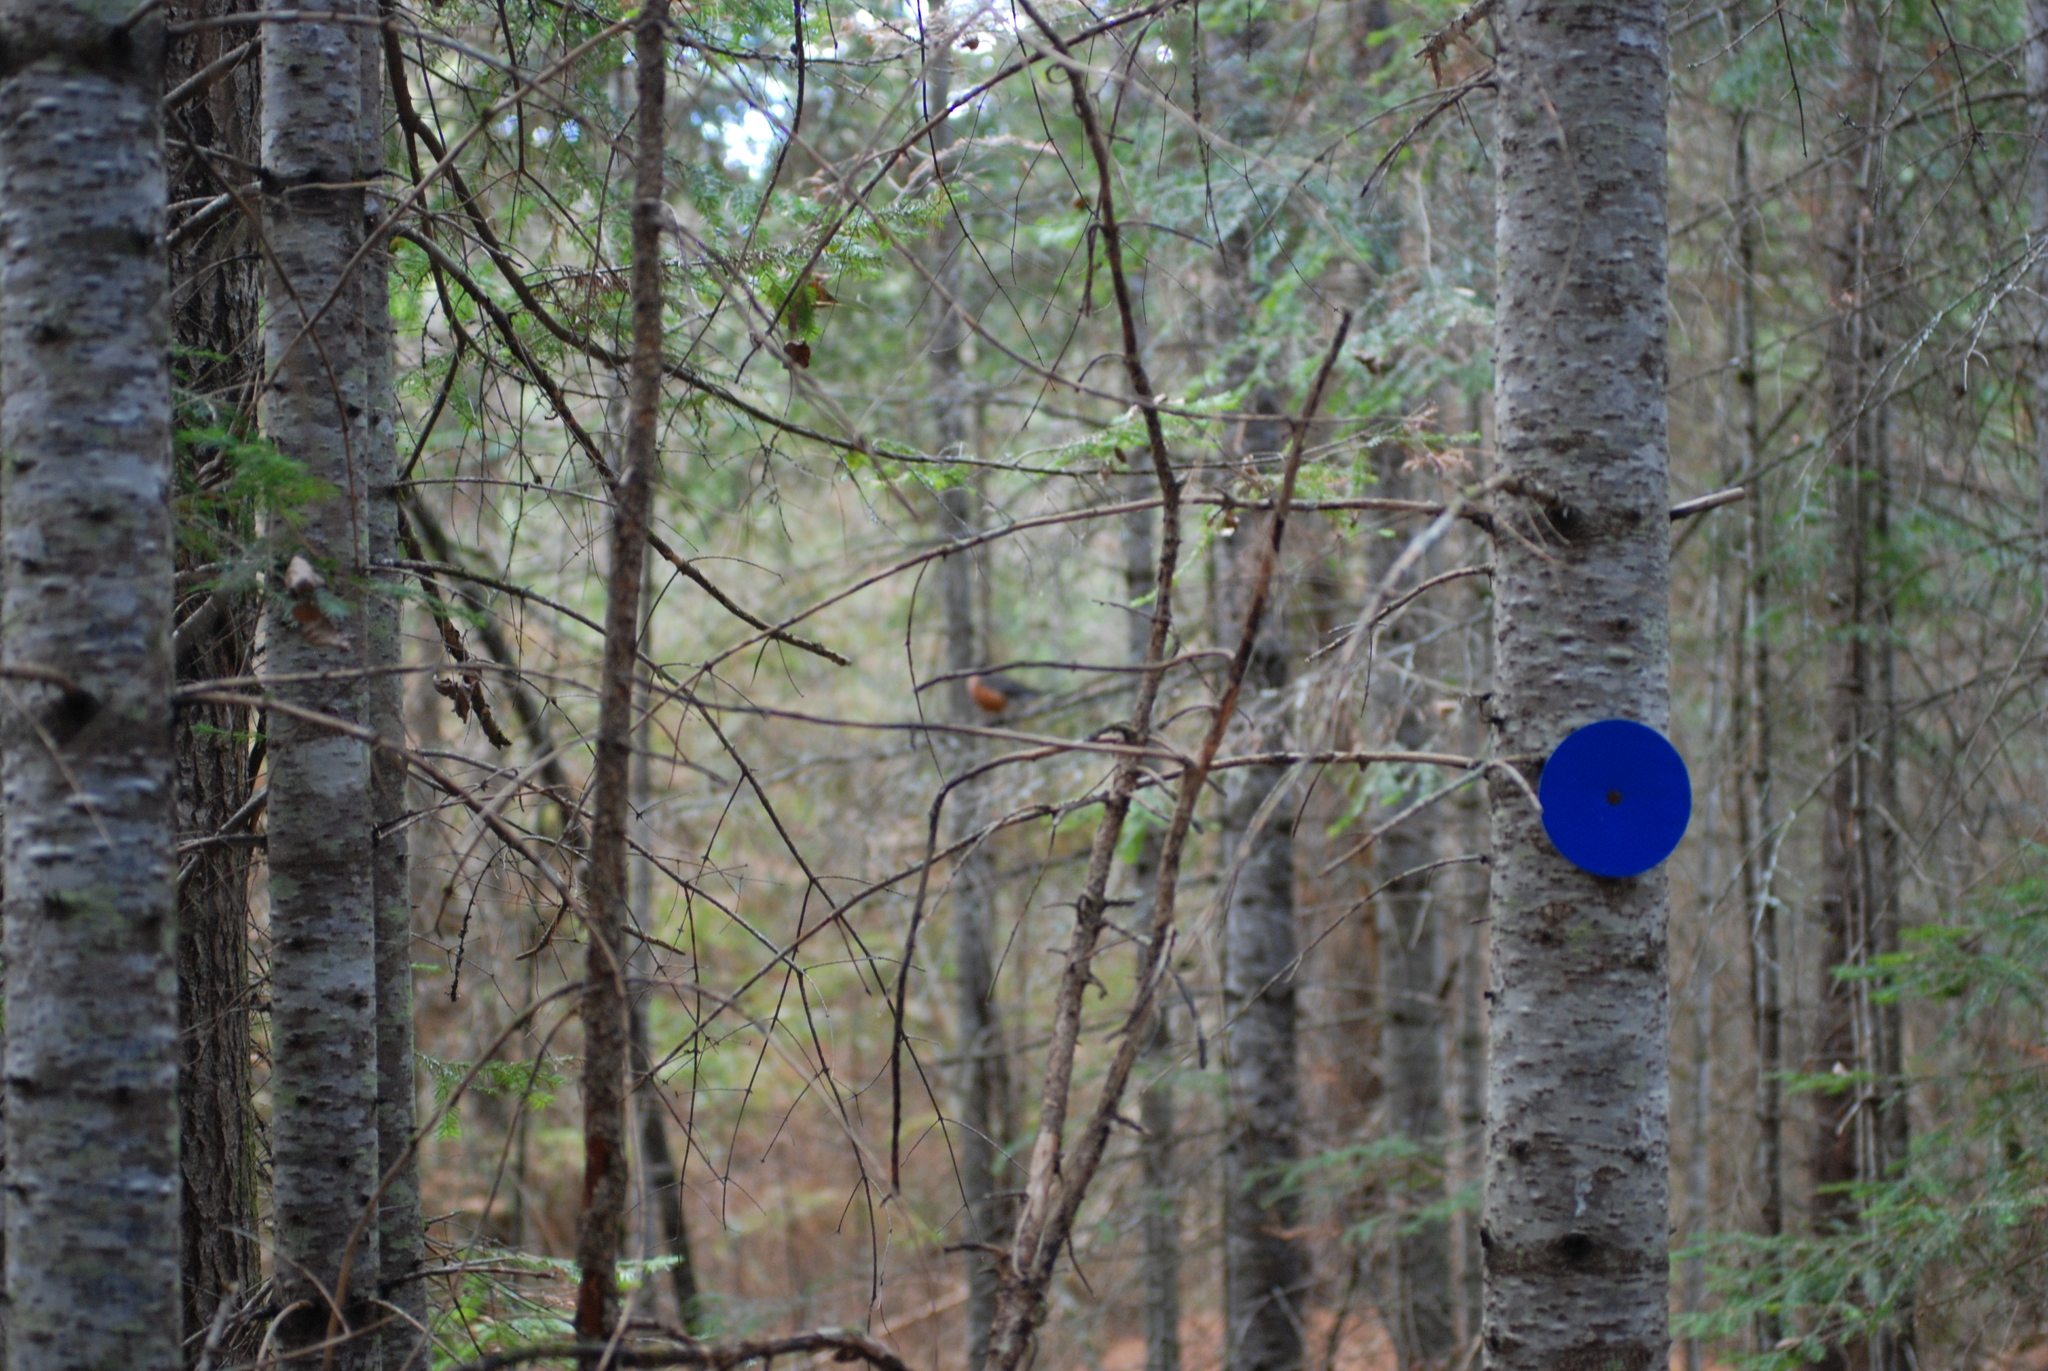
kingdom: Animalia
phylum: Chordata
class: Aves
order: Passeriformes
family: Turdidae
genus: Turdus
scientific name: Turdus migratorius
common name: American robin
